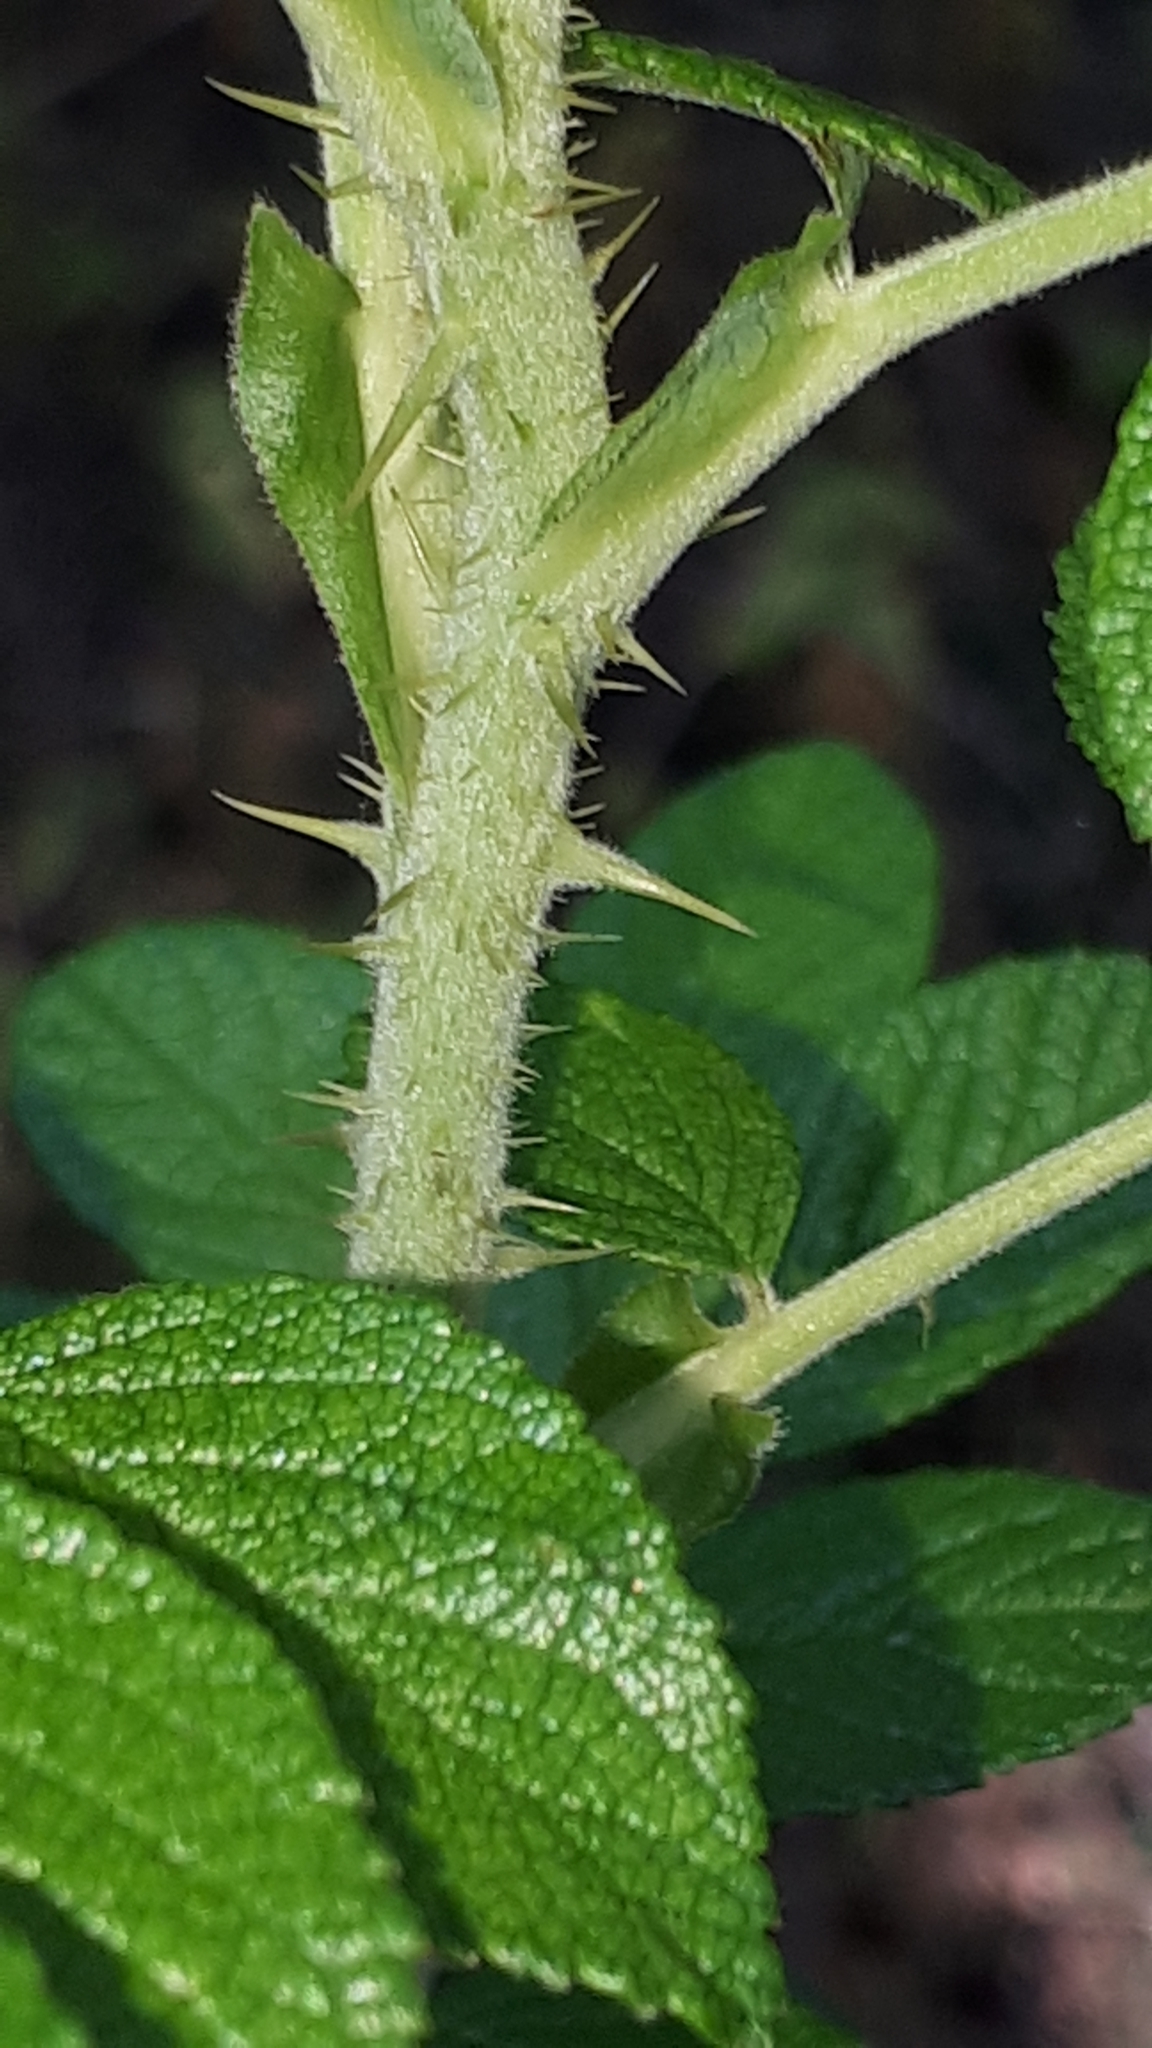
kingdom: Plantae
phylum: Tracheophyta
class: Magnoliopsida
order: Rosales
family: Rosaceae
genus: Rosa
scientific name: Rosa rugosa
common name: Japanese rose
